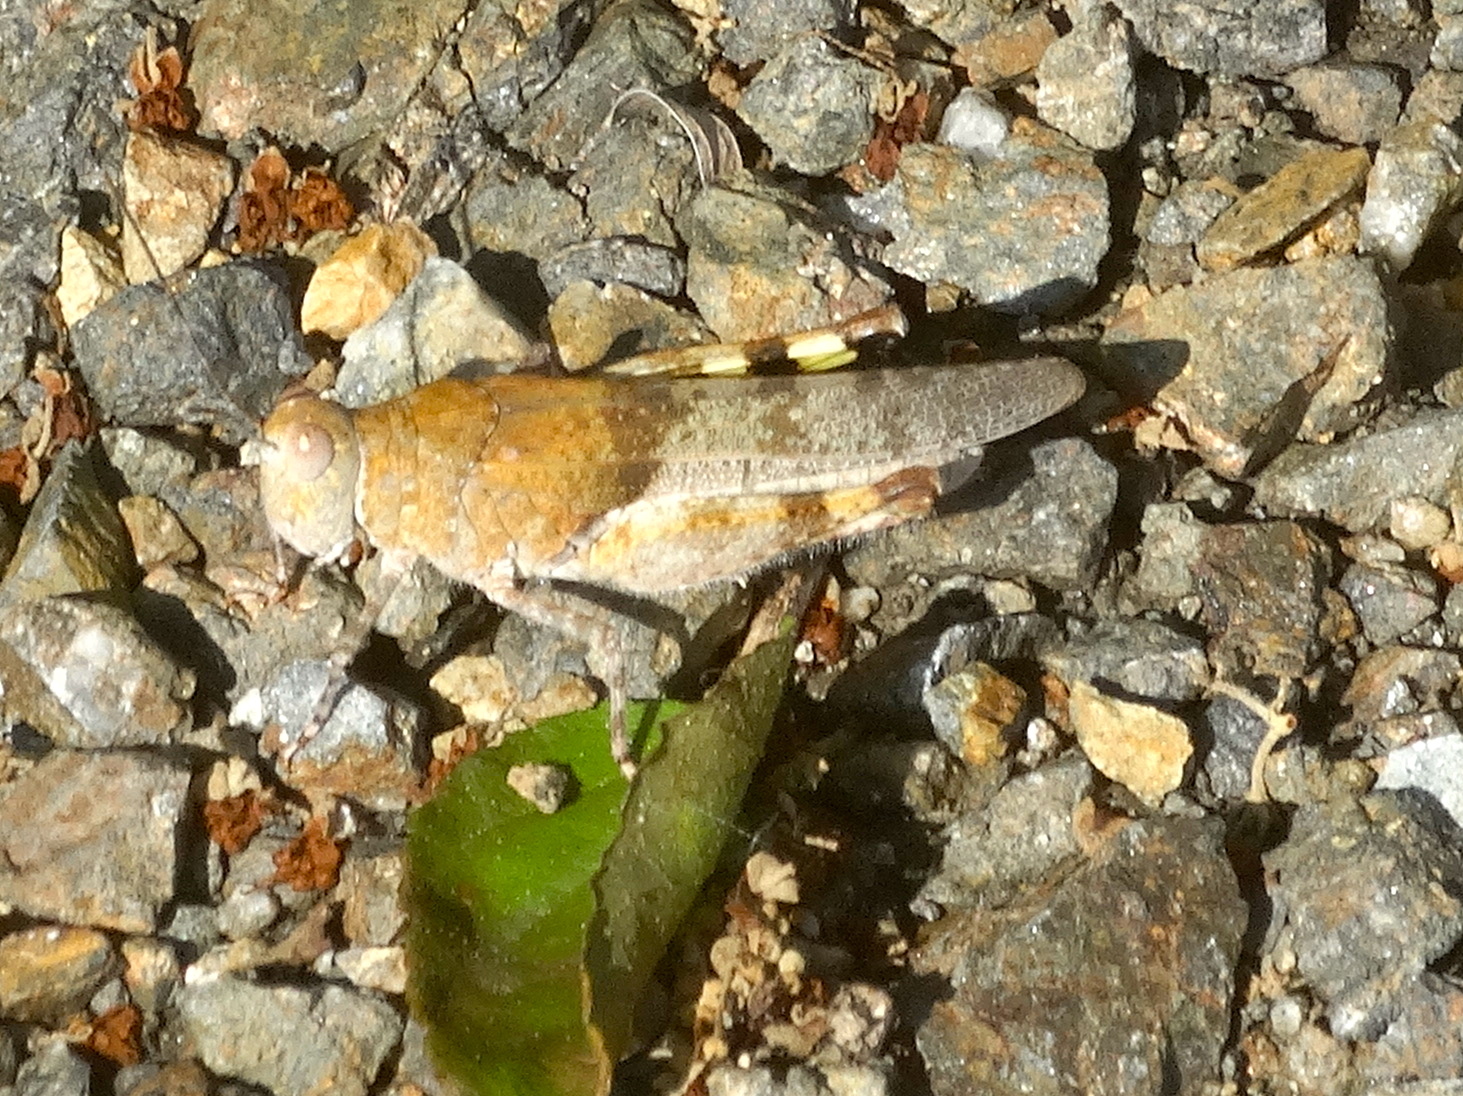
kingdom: Animalia
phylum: Arthropoda
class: Insecta
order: Orthoptera
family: Acrididae
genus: Heliastus
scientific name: Heliastus benjamini
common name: Arroyo grasshopper
